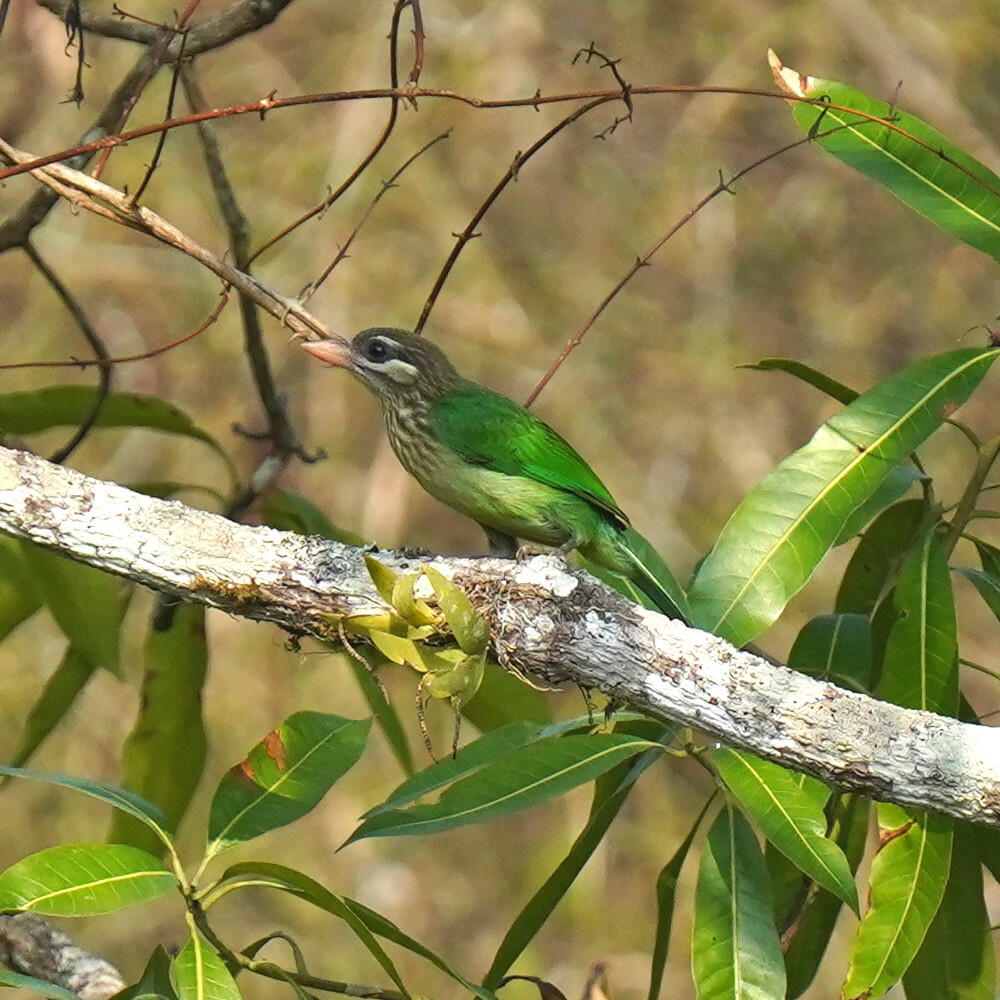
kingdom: Animalia
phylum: Chordata
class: Aves
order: Piciformes
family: Megalaimidae
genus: Psilopogon
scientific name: Psilopogon viridis
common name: White-cheeked barbet
